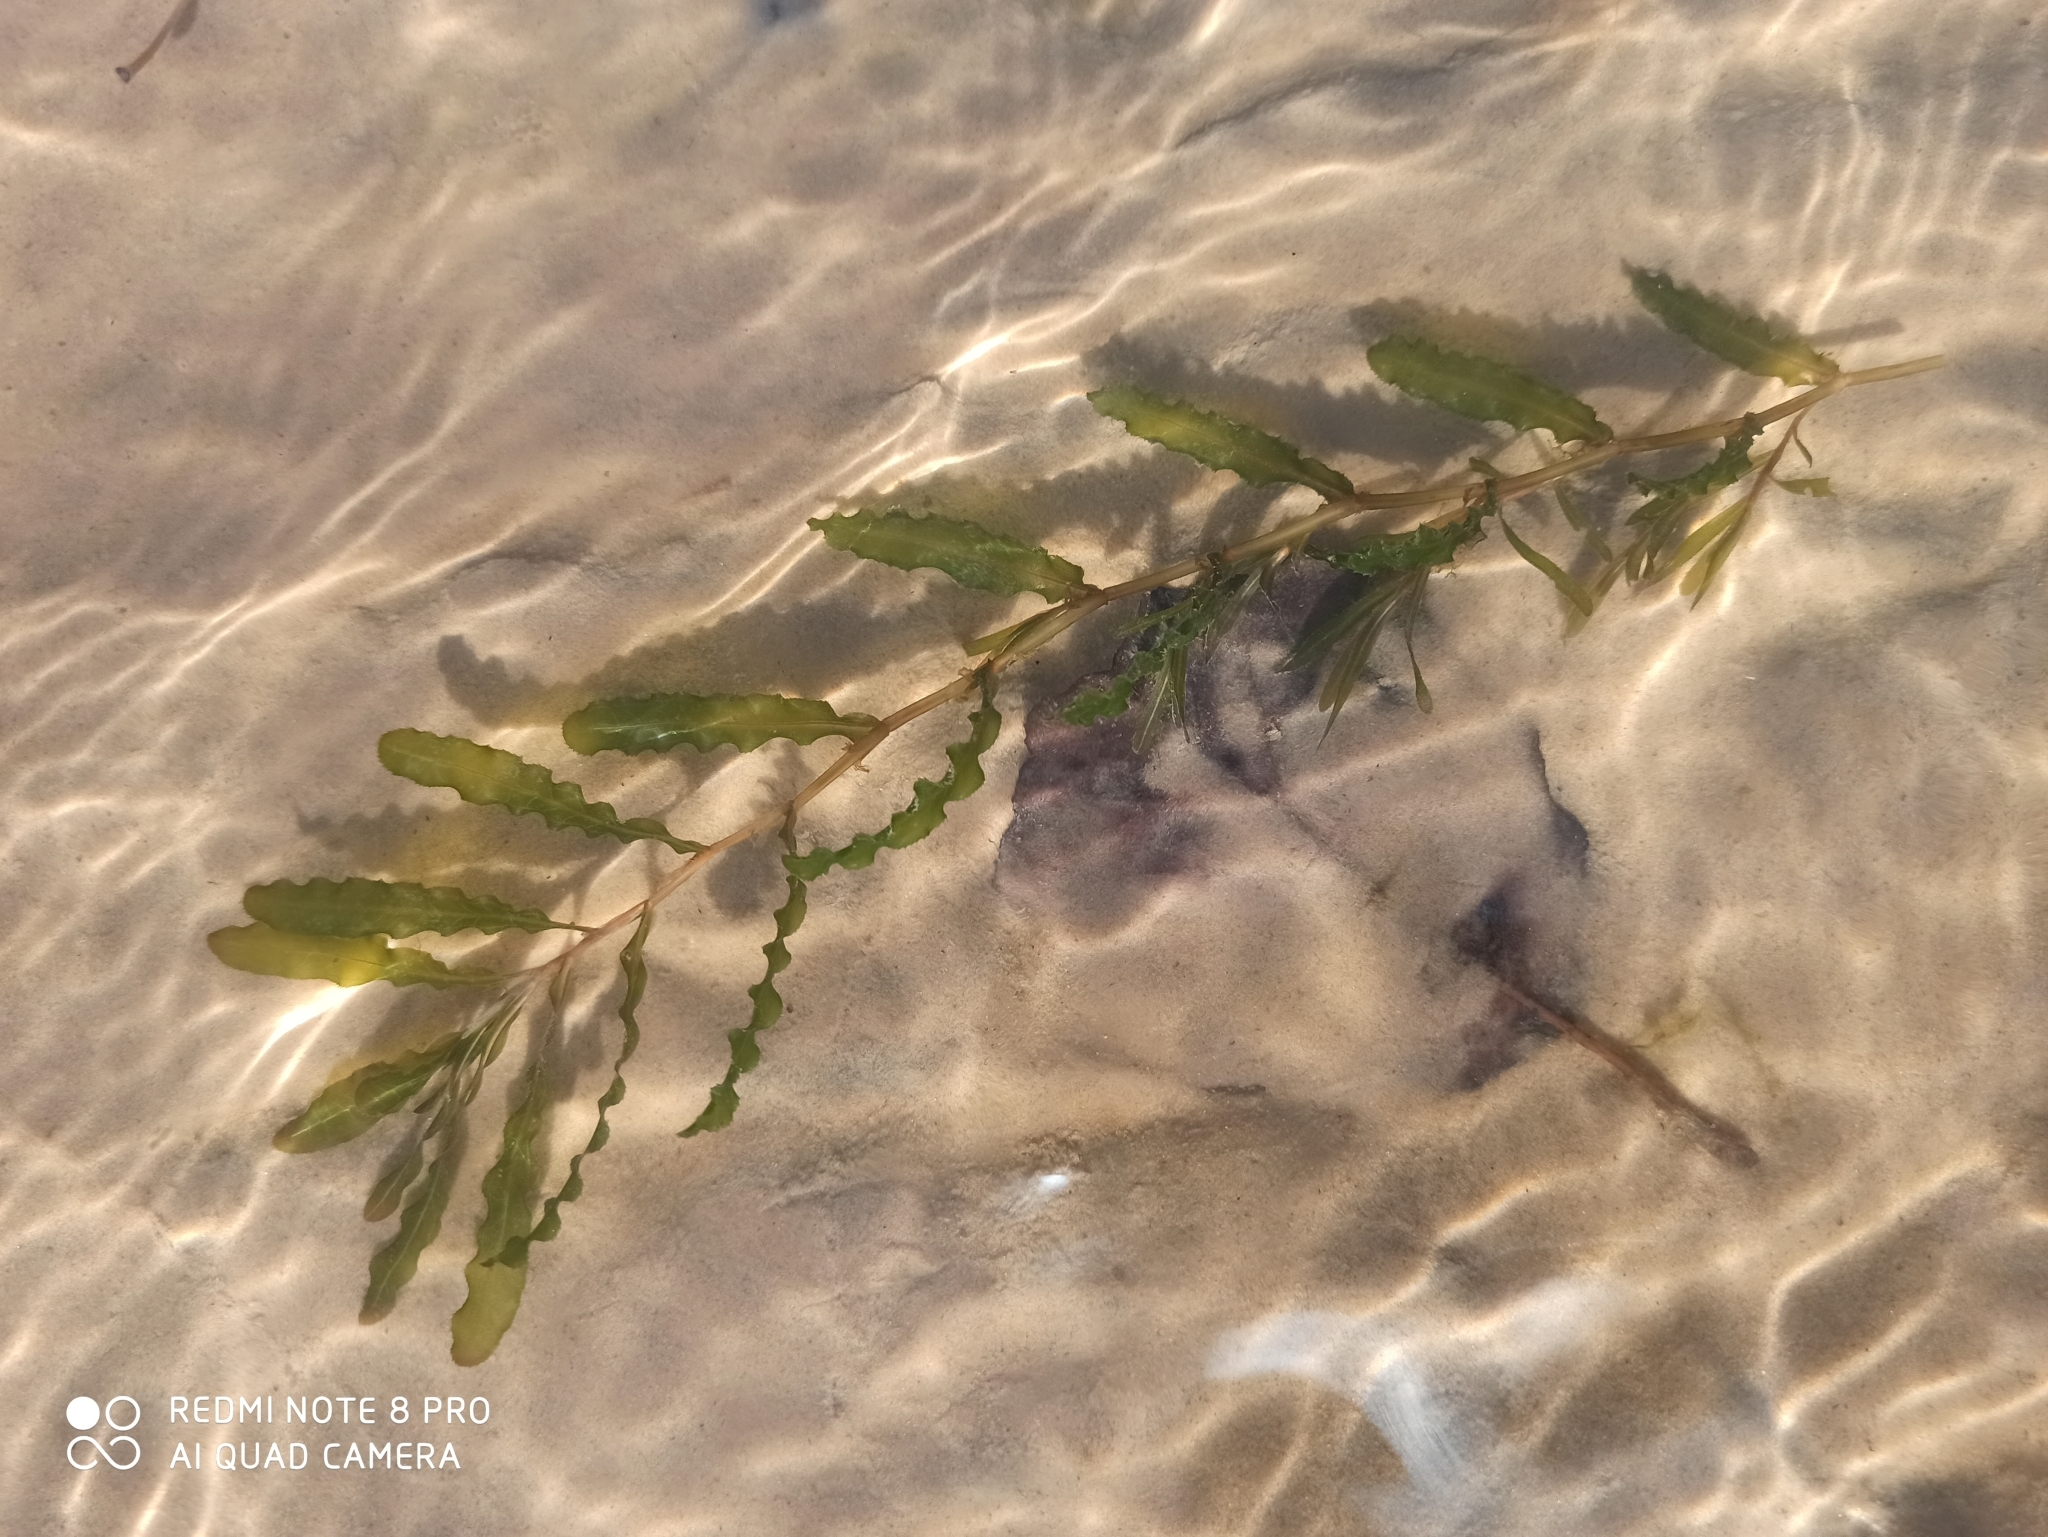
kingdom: Plantae
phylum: Tracheophyta
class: Liliopsida
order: Alismatales
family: Potamogetonaceae
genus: Potamogeton
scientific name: Potamogeton crispus
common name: Curled pondweed
